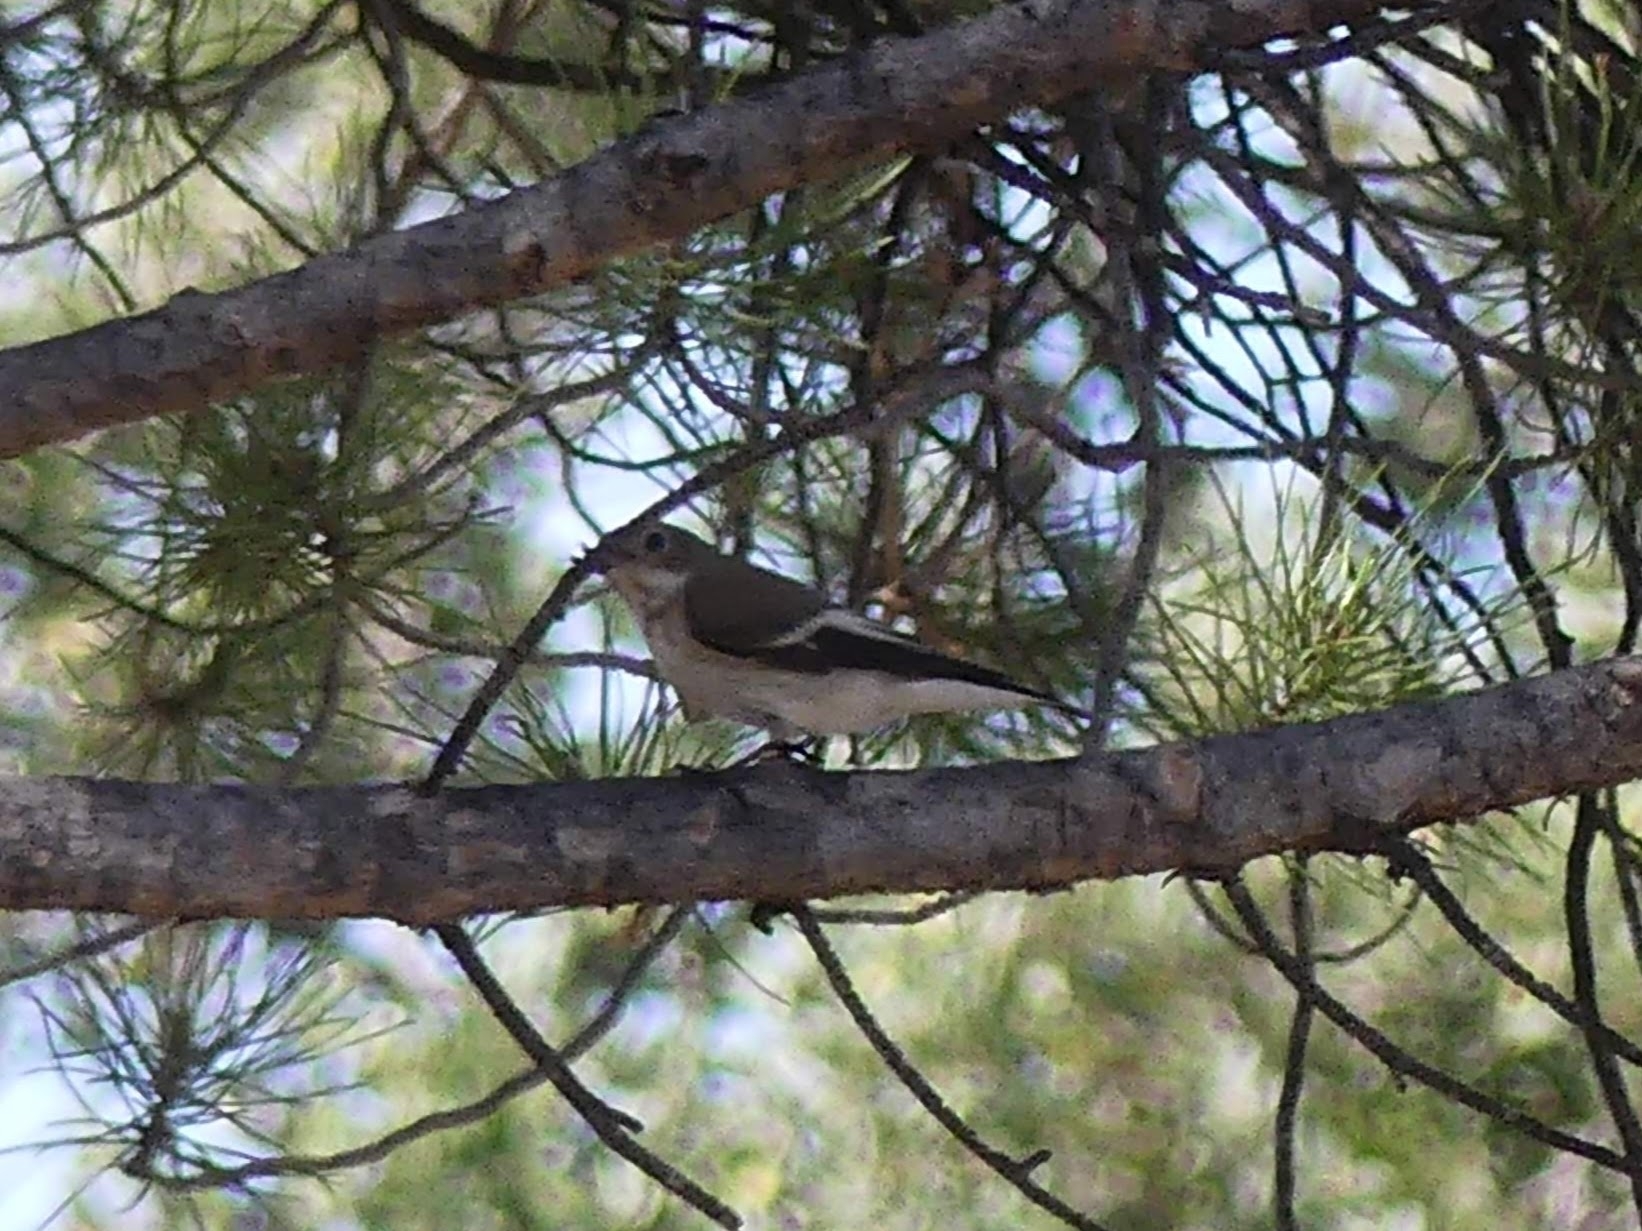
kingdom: Animalia
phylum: Chordata
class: Aves
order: Passeriformes
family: Muscicapidae
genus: Ficedula
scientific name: Ficedula hypoleuca
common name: European pied flycatcher
